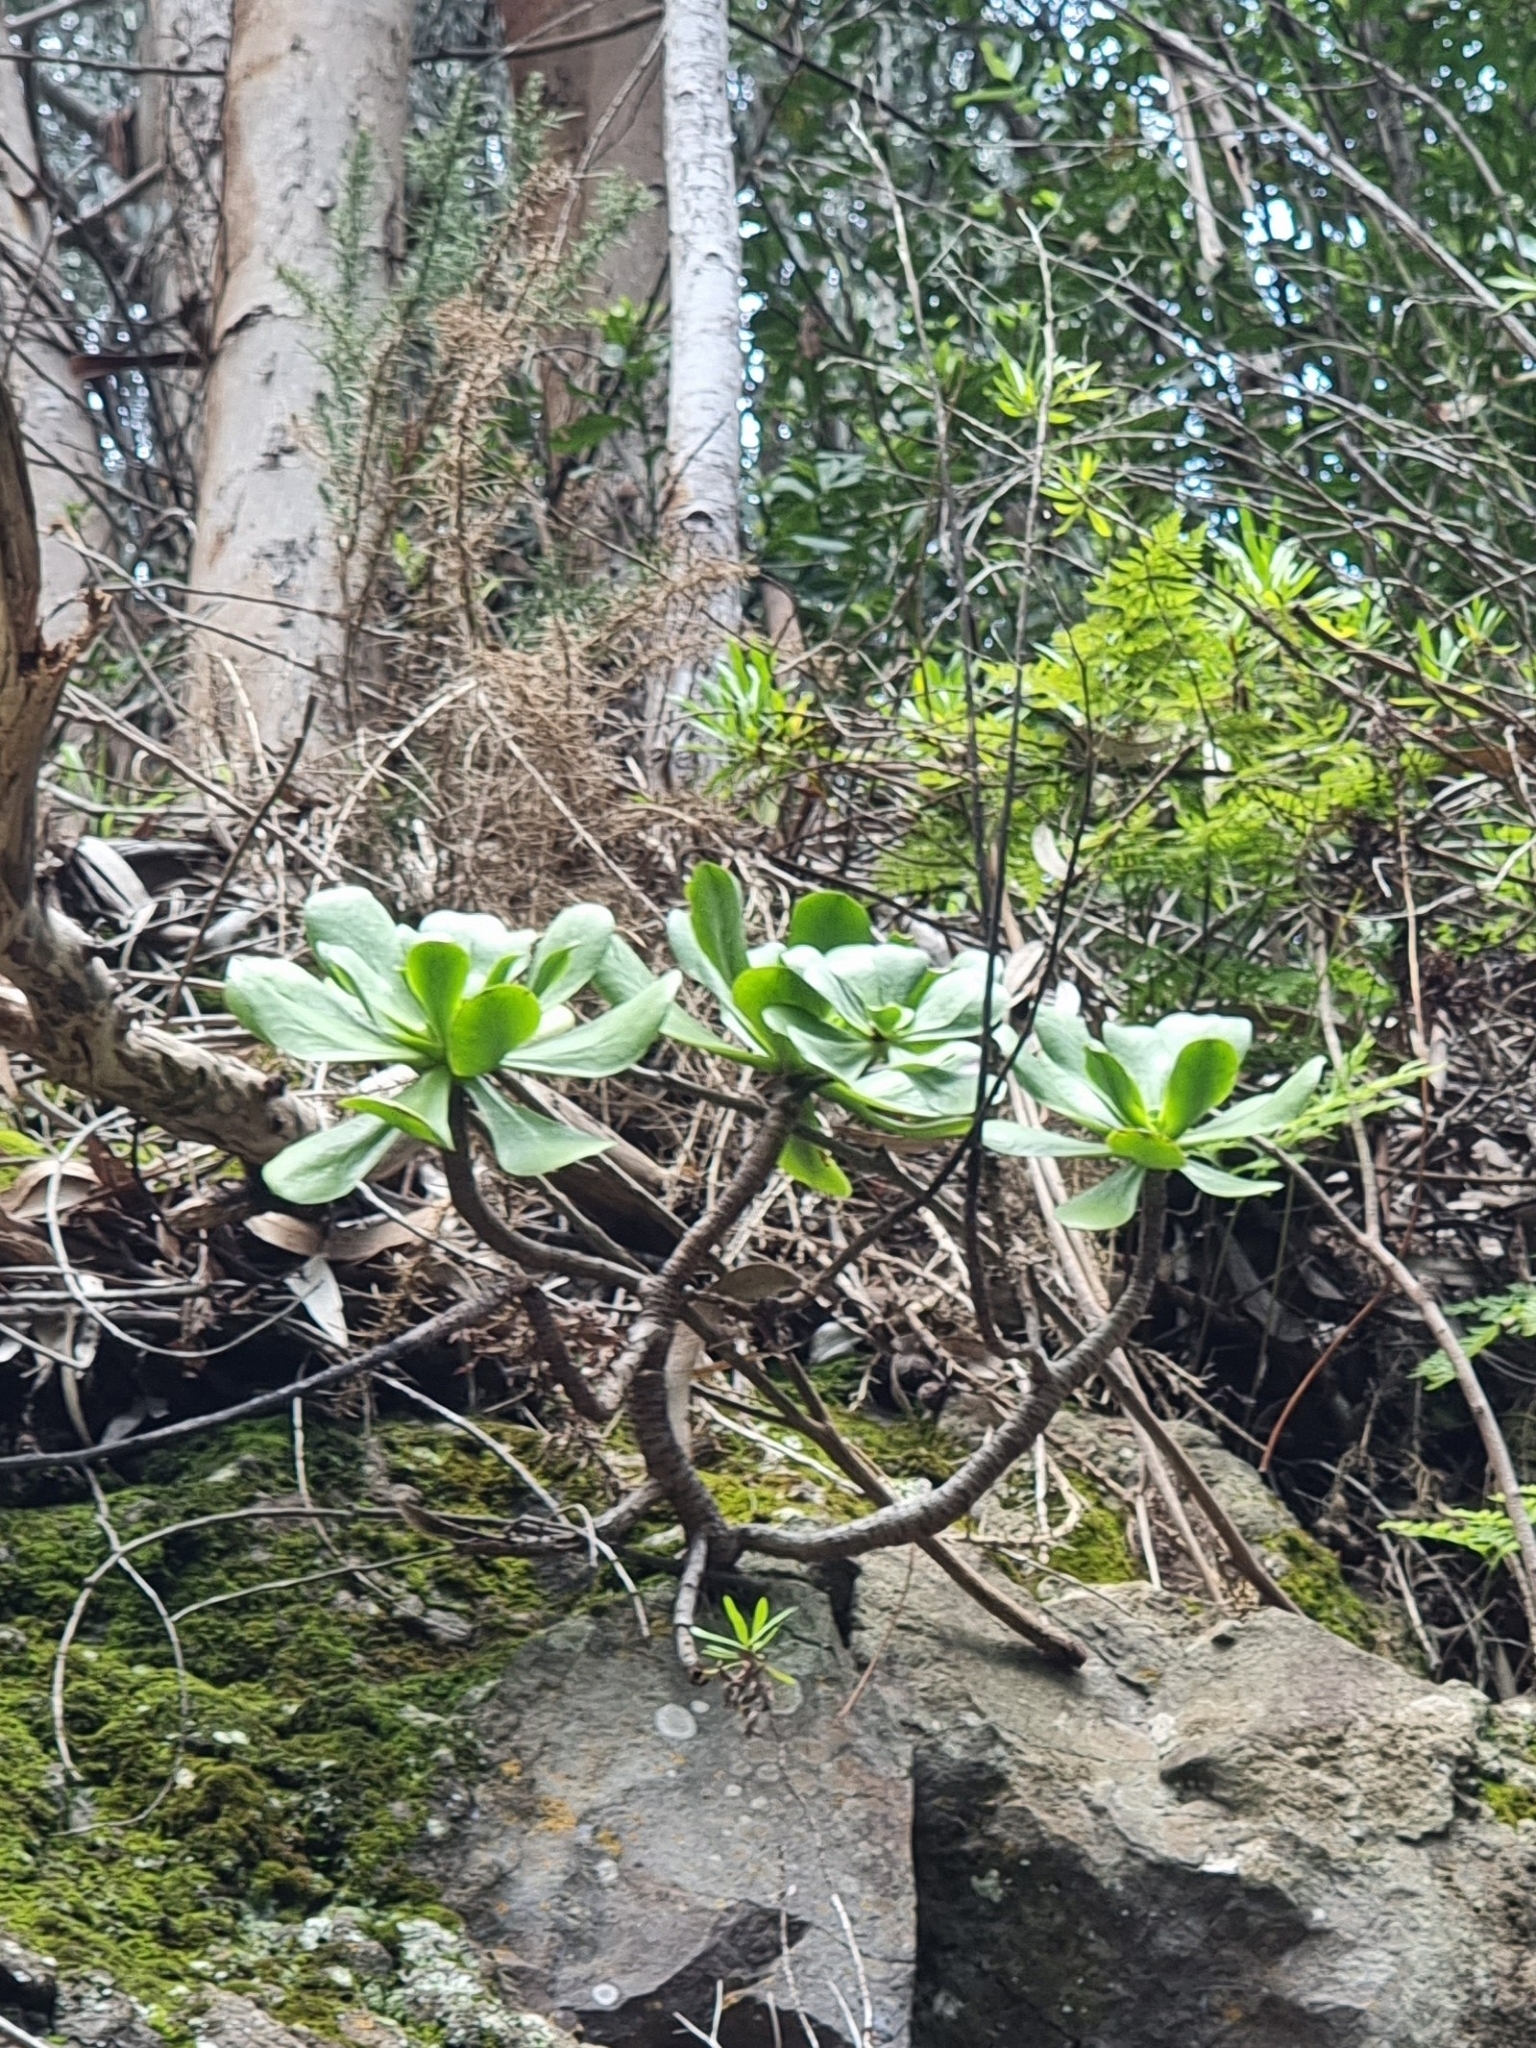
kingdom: Plantae
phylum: Tracheophyta
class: Magnoliopsida
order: Saxifragales
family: Crassulaceae
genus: Aeonium
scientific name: Aeonium glutinosum
